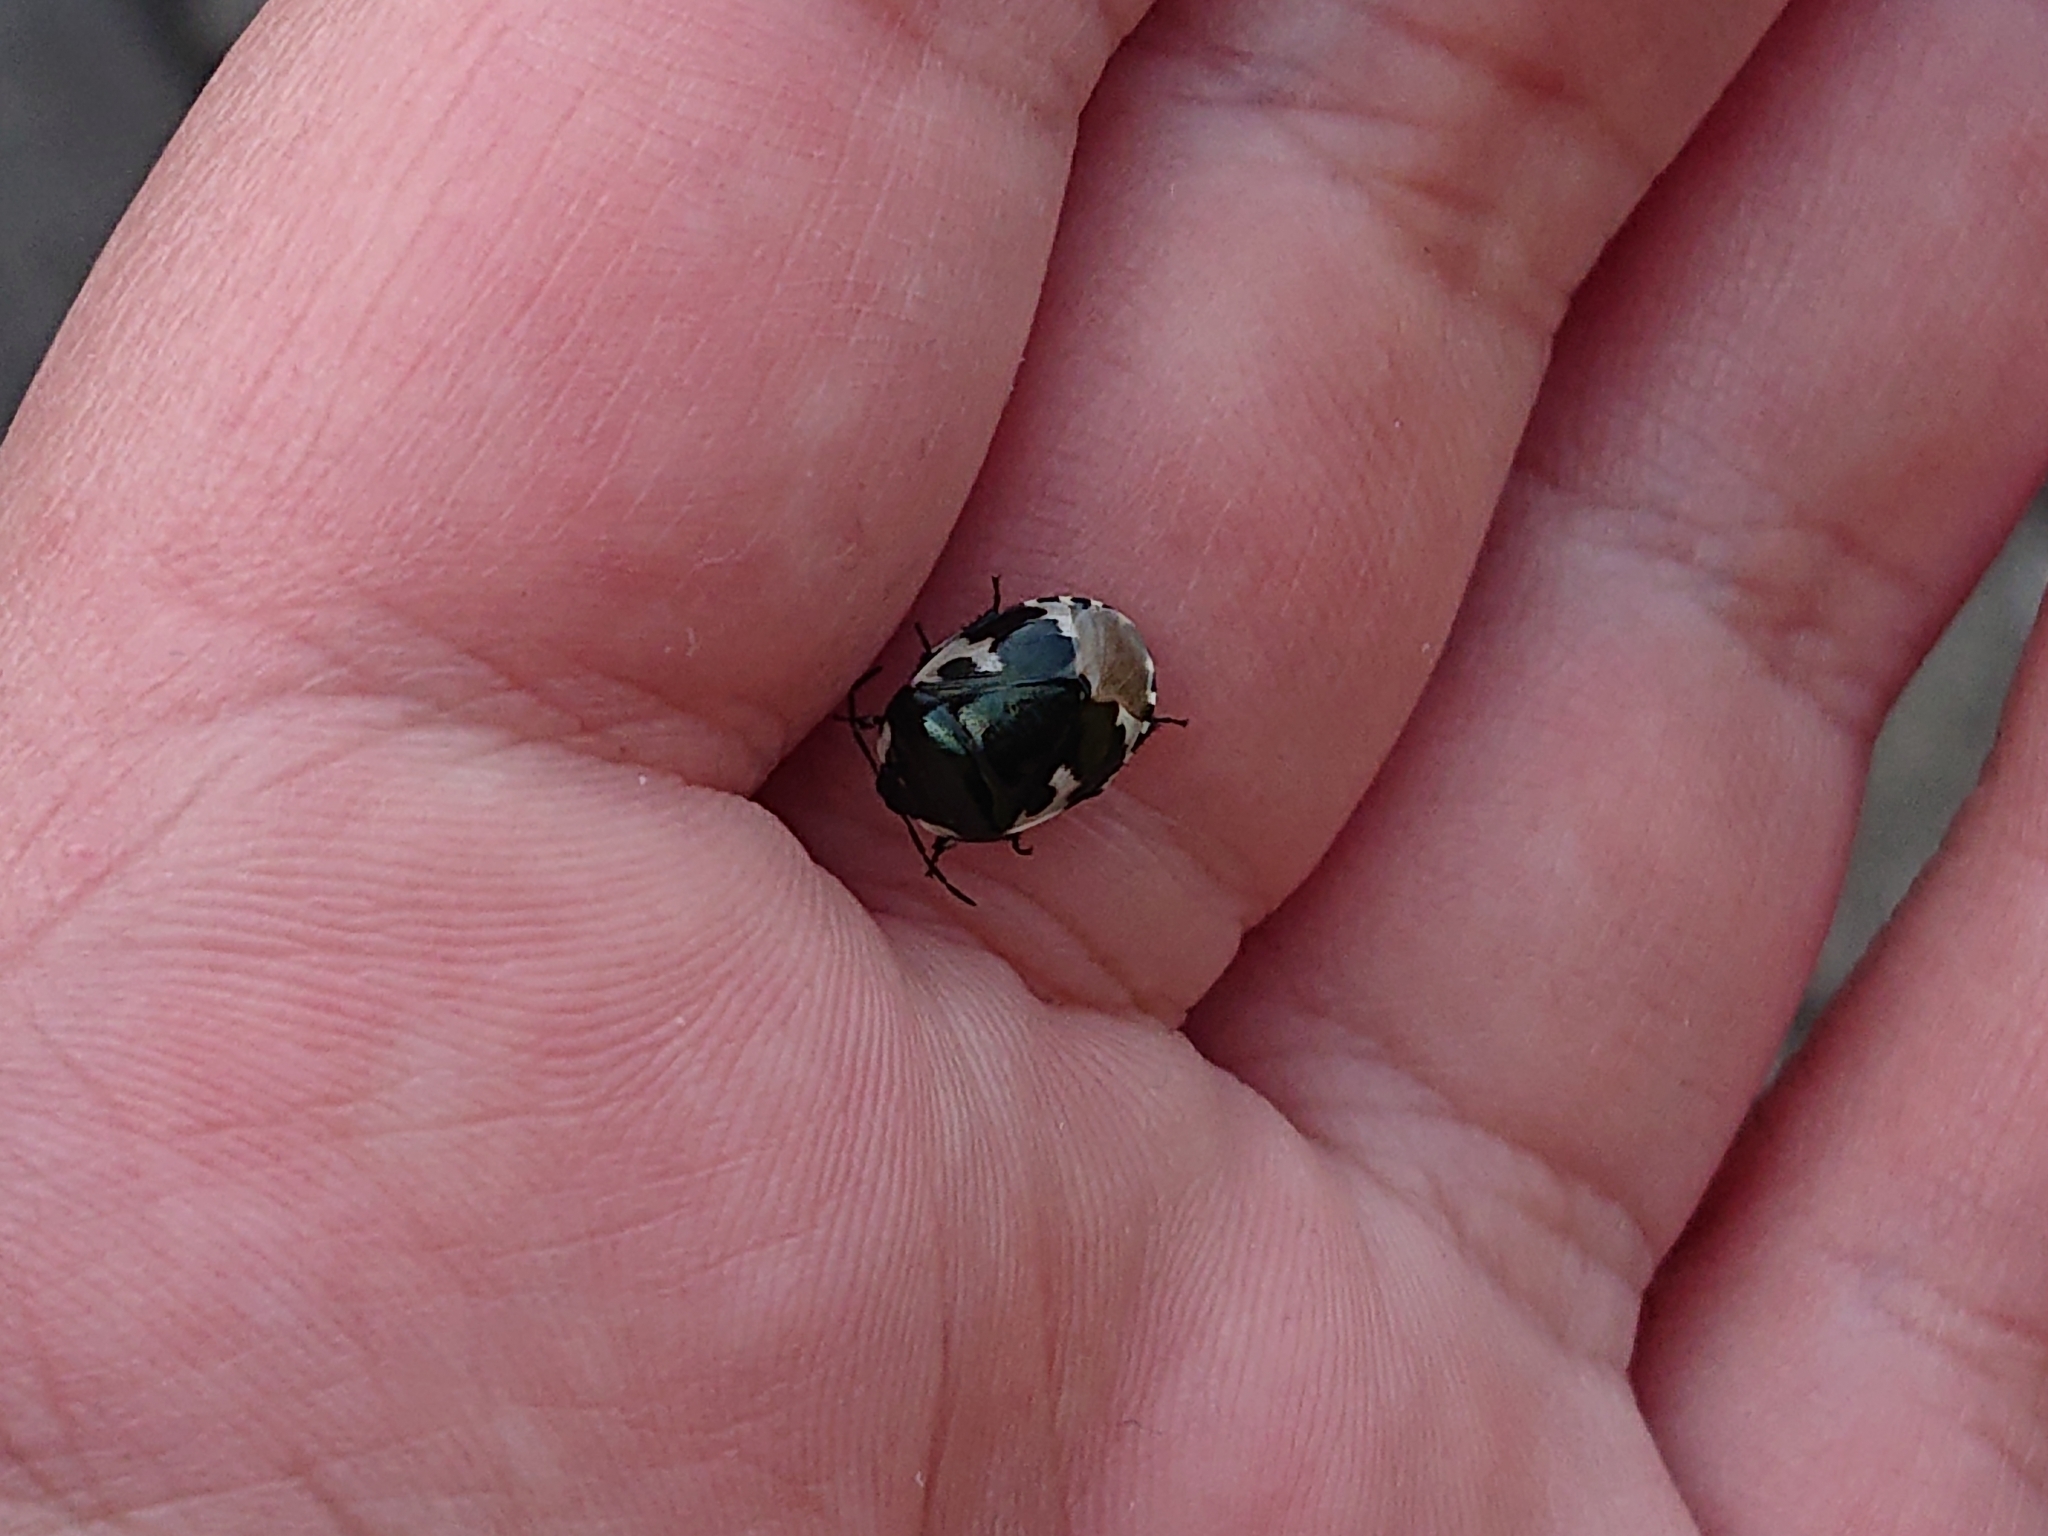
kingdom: Animalia
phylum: Arthropoda
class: Insecta
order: Hemiptera
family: Cydnidae
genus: Tritomegas
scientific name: Tritomegas bicolor
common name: Pied shieldbug
